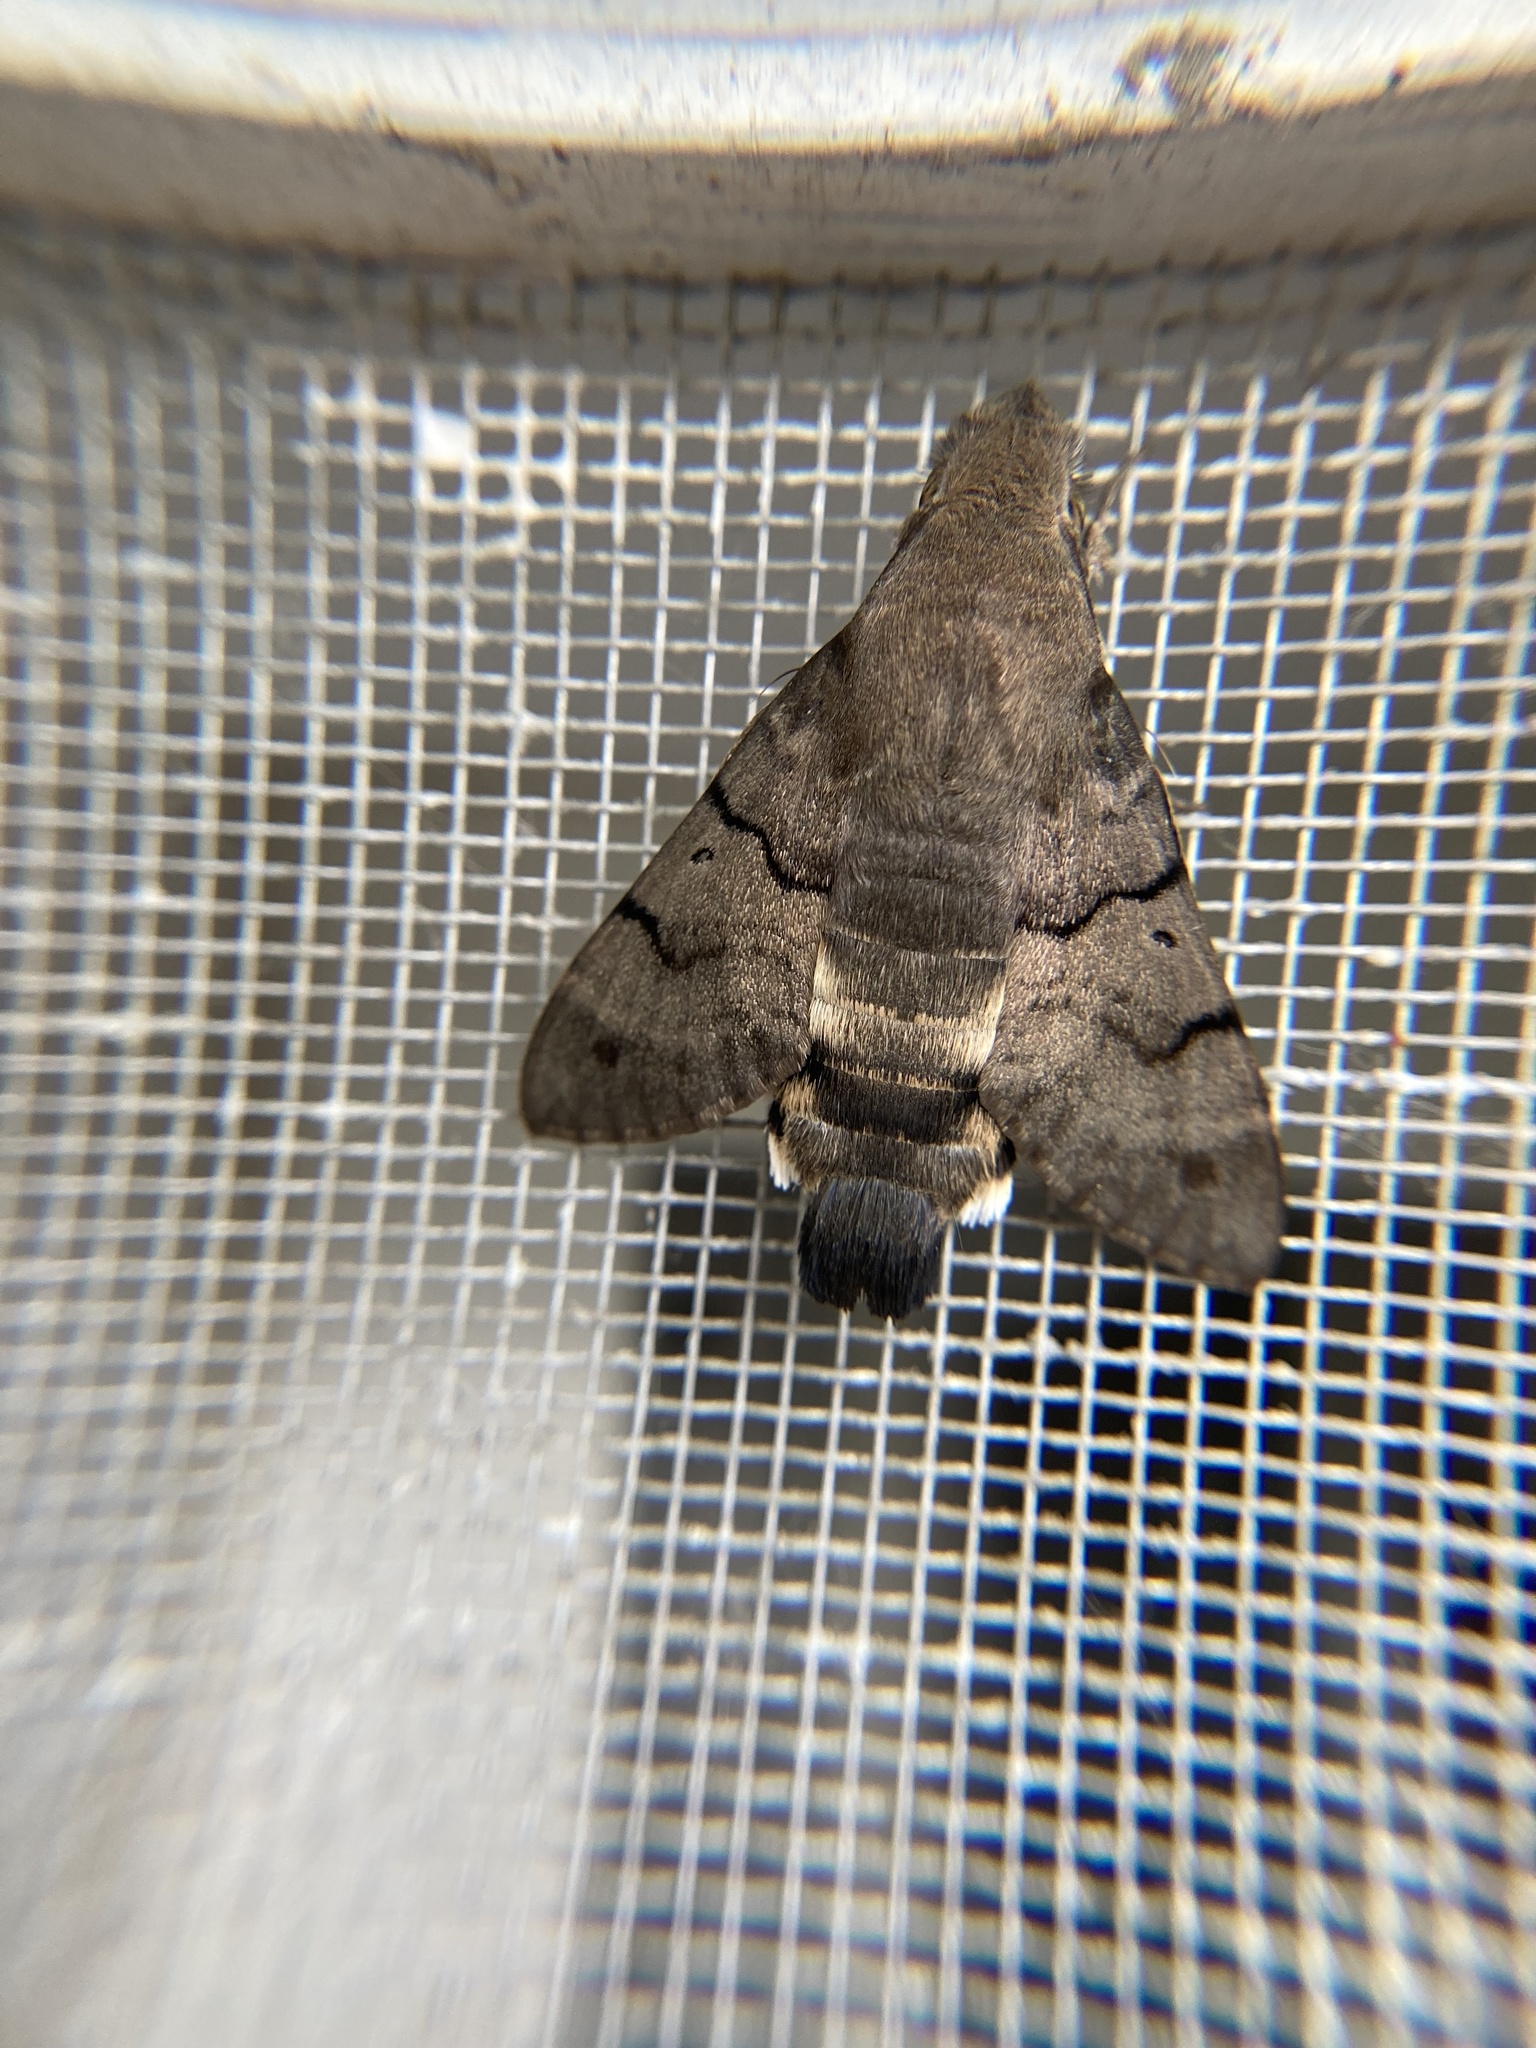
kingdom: Animalia
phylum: Arthropoda
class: Insecta
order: Lepidoptera
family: Sphingidae
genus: Macroglossum
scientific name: Macroglossum stellatarum
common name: Humming-bird hawk-moth
